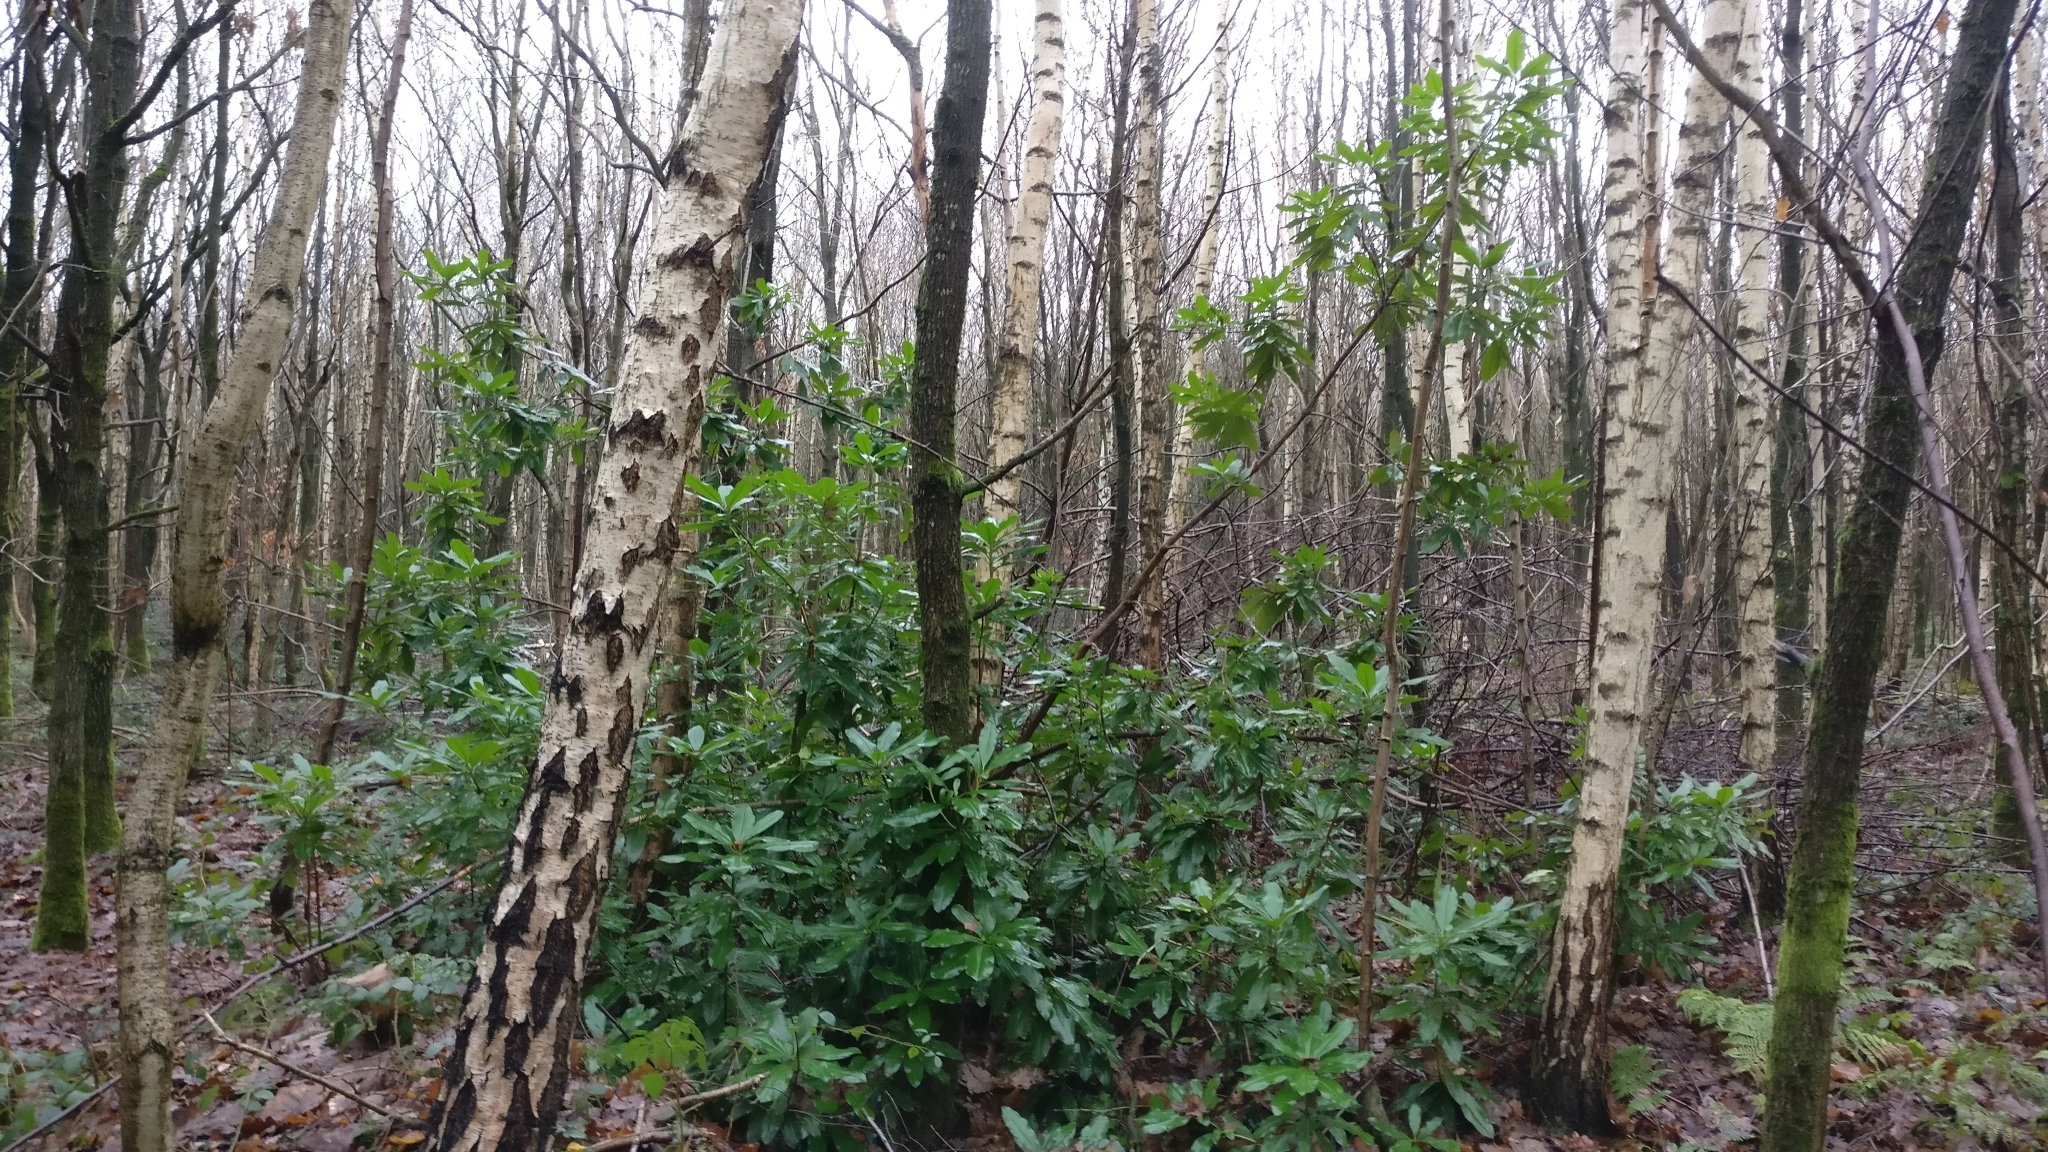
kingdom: Plantae
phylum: Tracheophyta
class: Magnoliopsida
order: Ericales
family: Ericaceae
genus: Rhododendron
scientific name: Rhododendron ponticum
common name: Rhododendron
